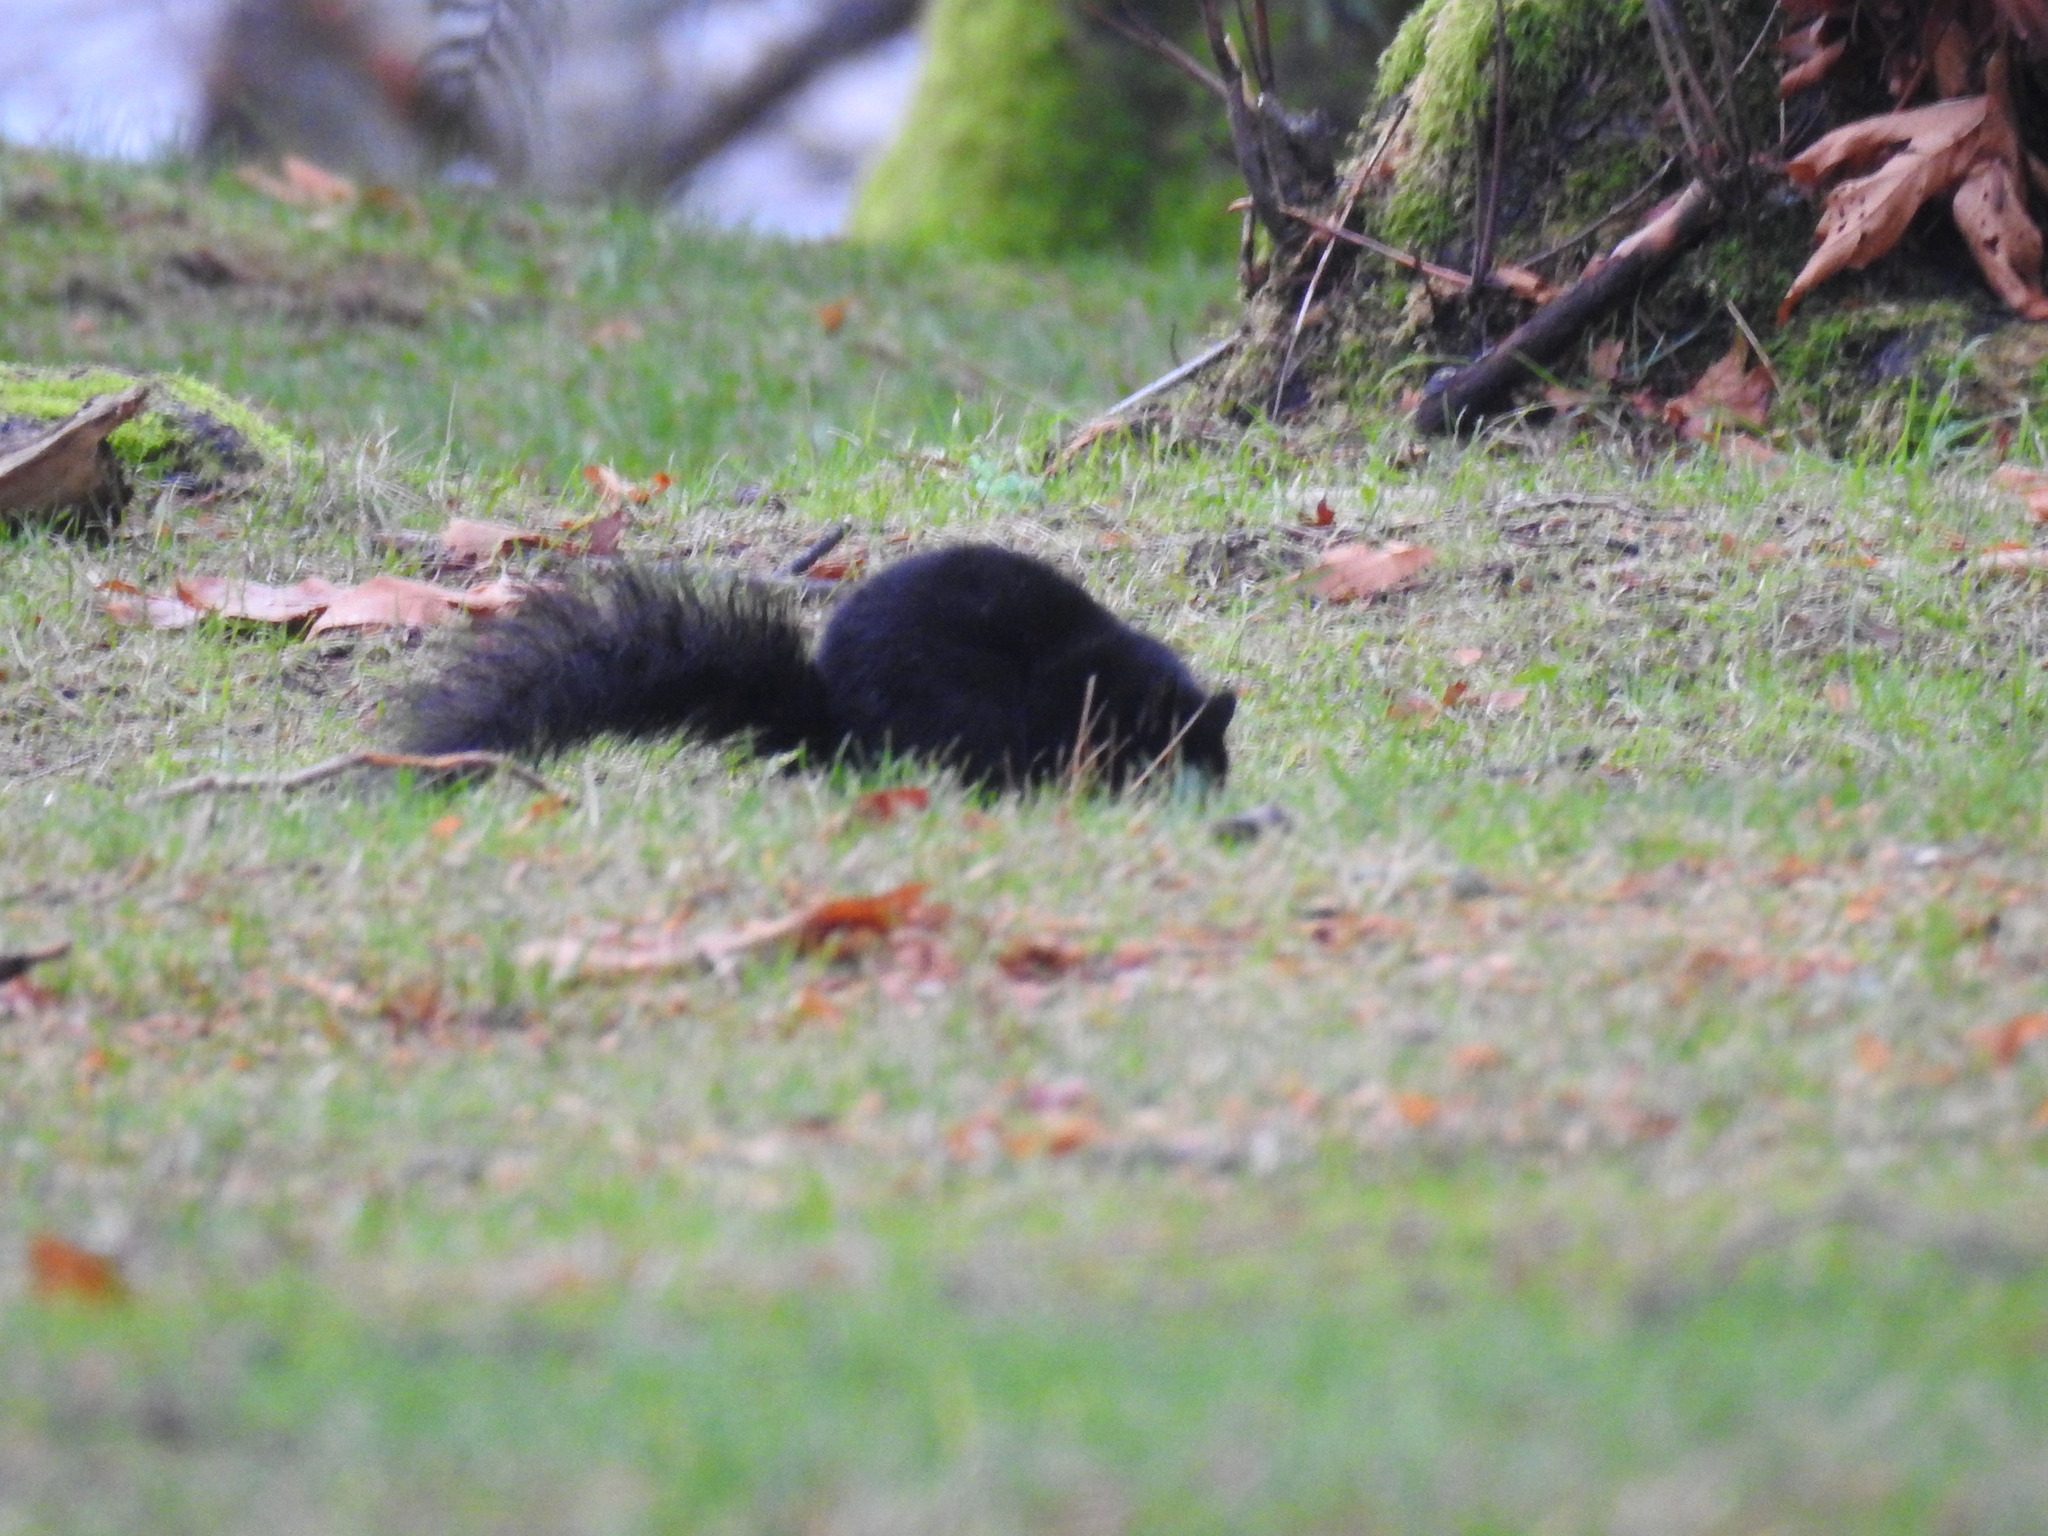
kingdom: Animalia
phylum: Chordata
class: Mammalia
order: Rodentia
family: Sciuridae
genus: Sciurus
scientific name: Sciurus carolinensis
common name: Eastern gray squirrel
